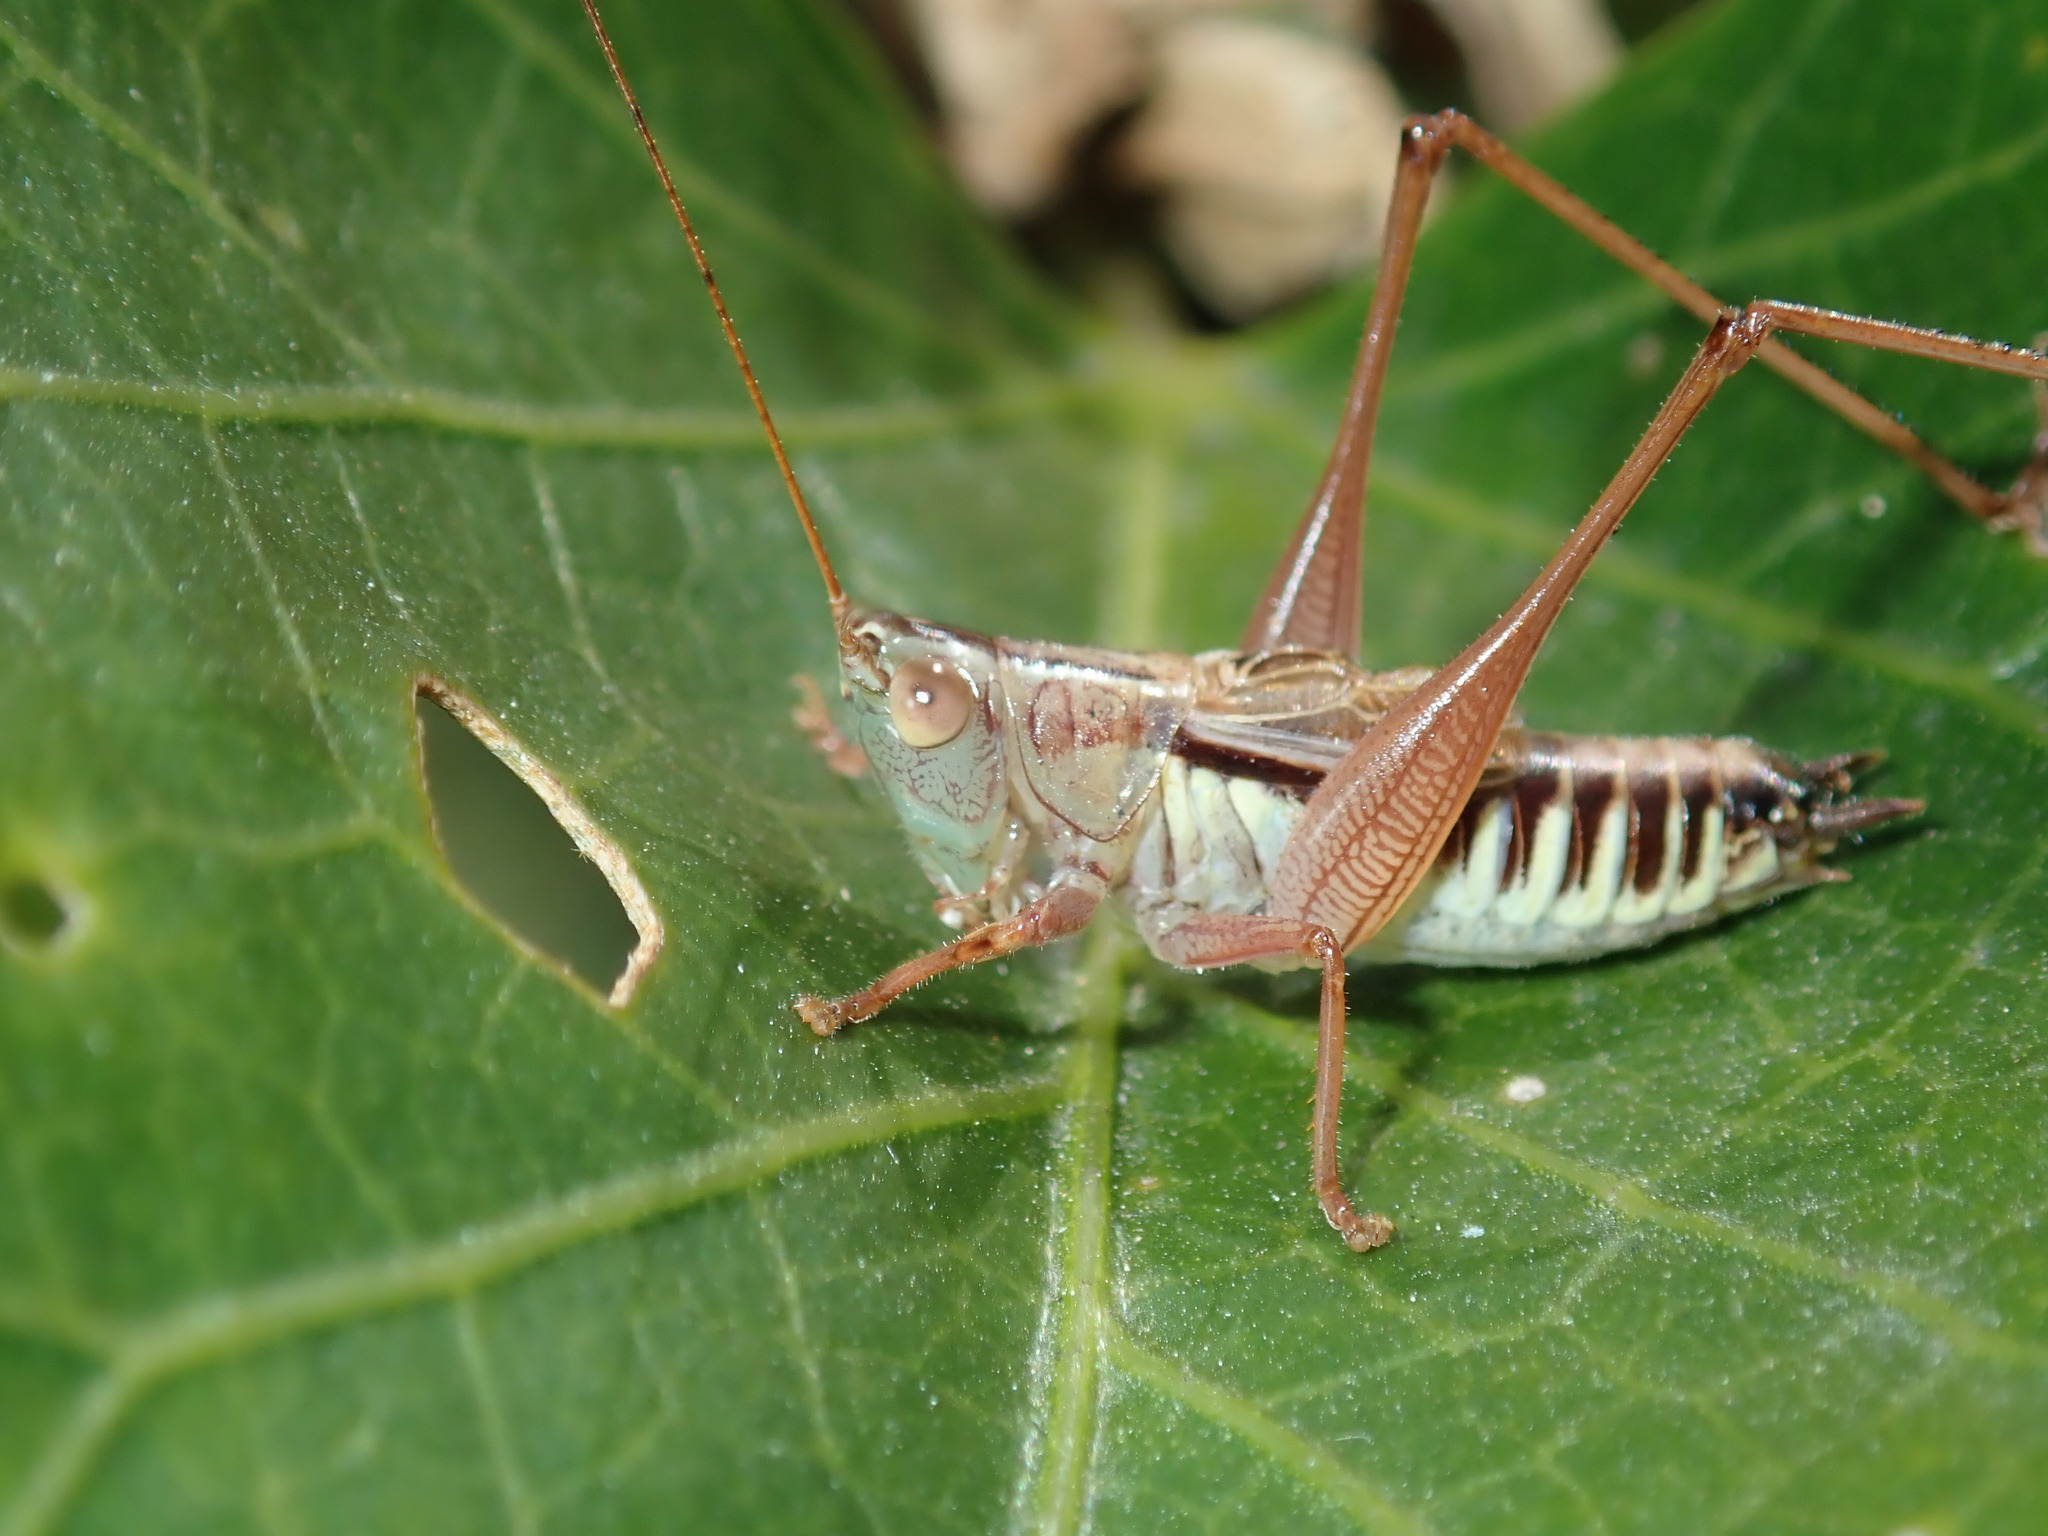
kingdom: Animalia
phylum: Arthropoda
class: Insecta
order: Orthoptera
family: Tettigoniidae
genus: Conocephalus
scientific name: Conocephalus semivittatus
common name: Blackish meadow katydid
